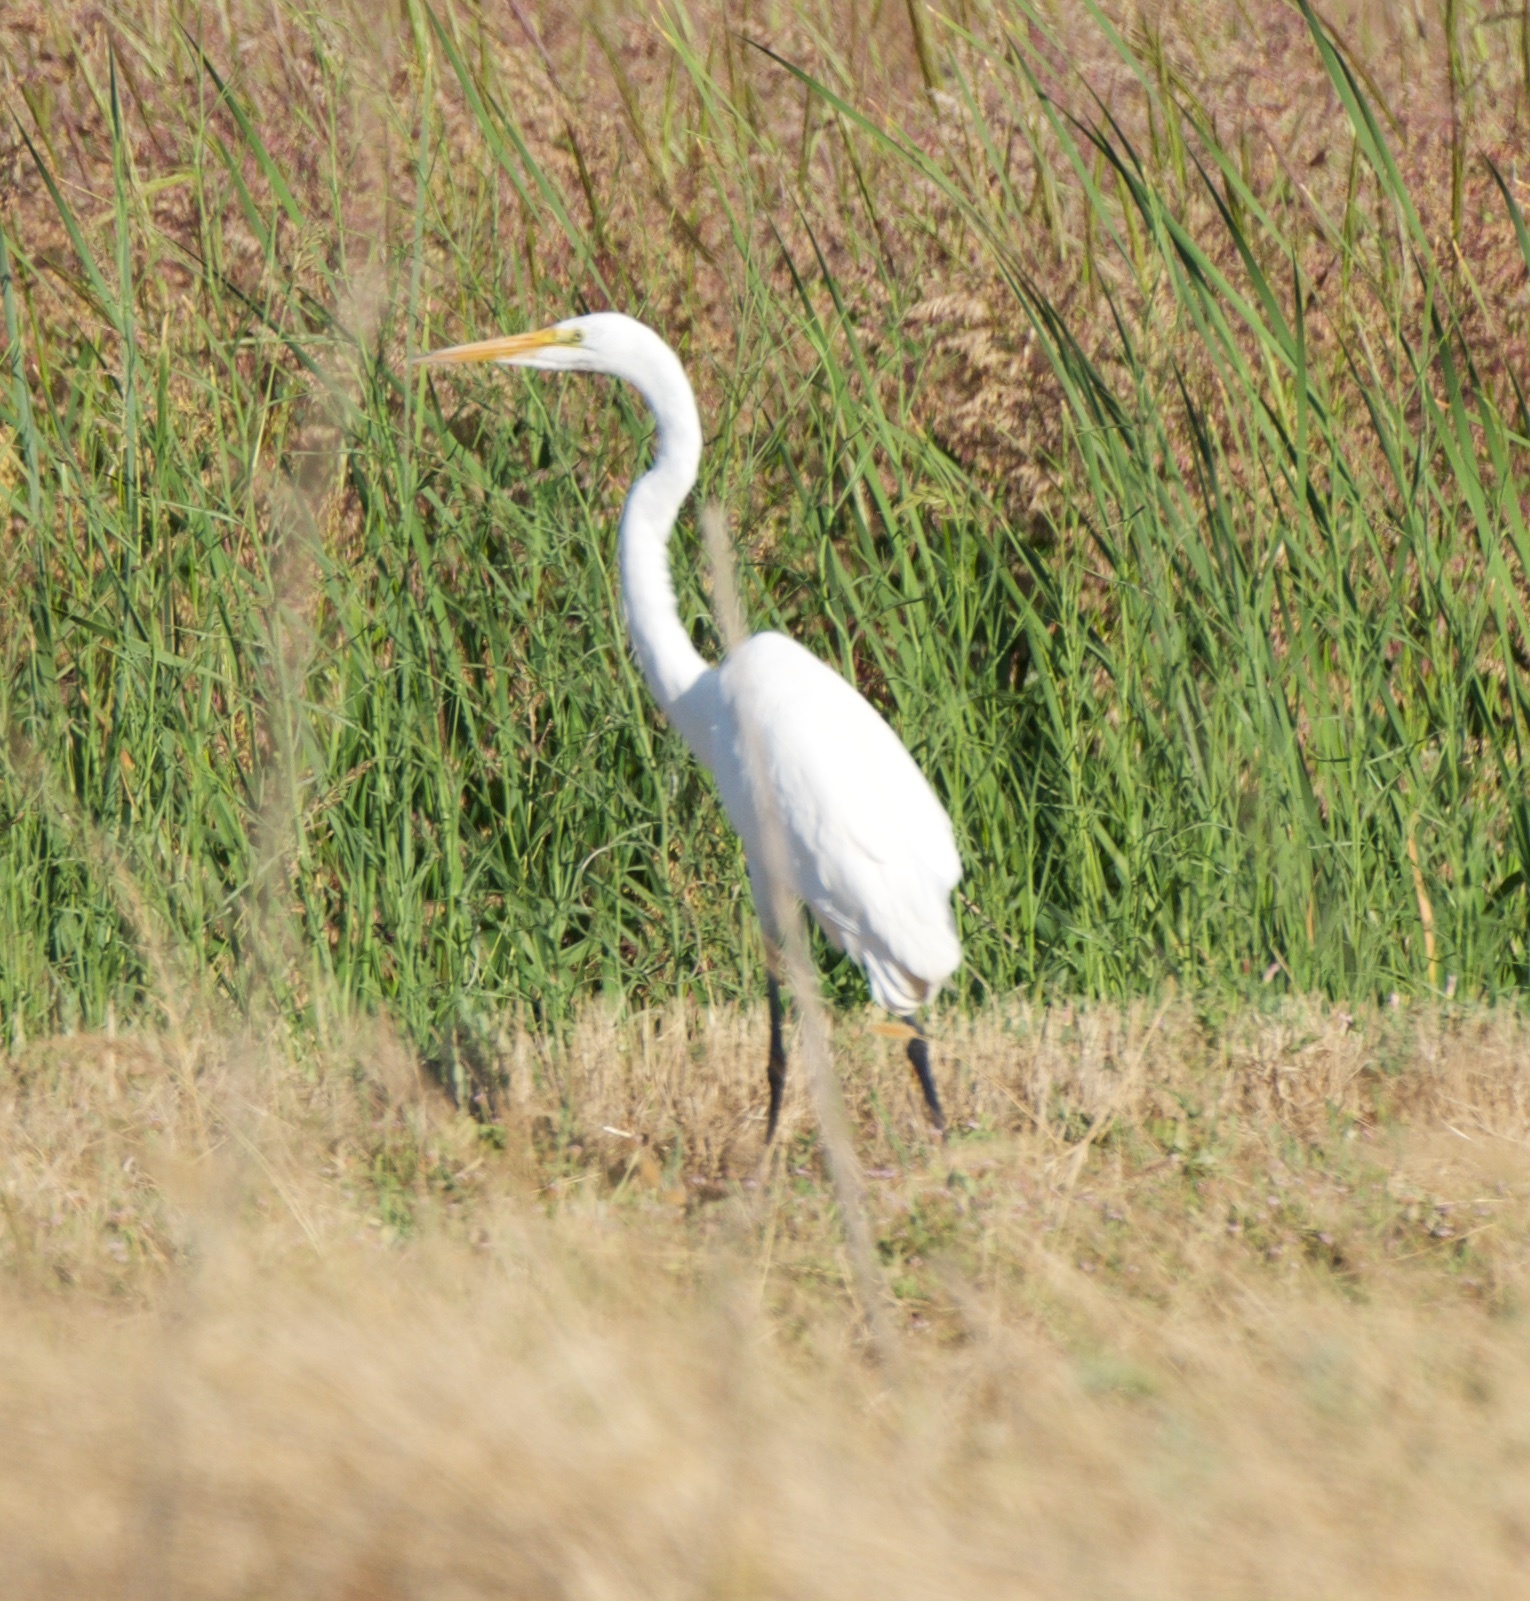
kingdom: Animalia
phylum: Chordata
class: Aves
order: Pelecaniformes
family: Ardeidae
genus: Ardea
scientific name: Ardea alba
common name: Great egret
